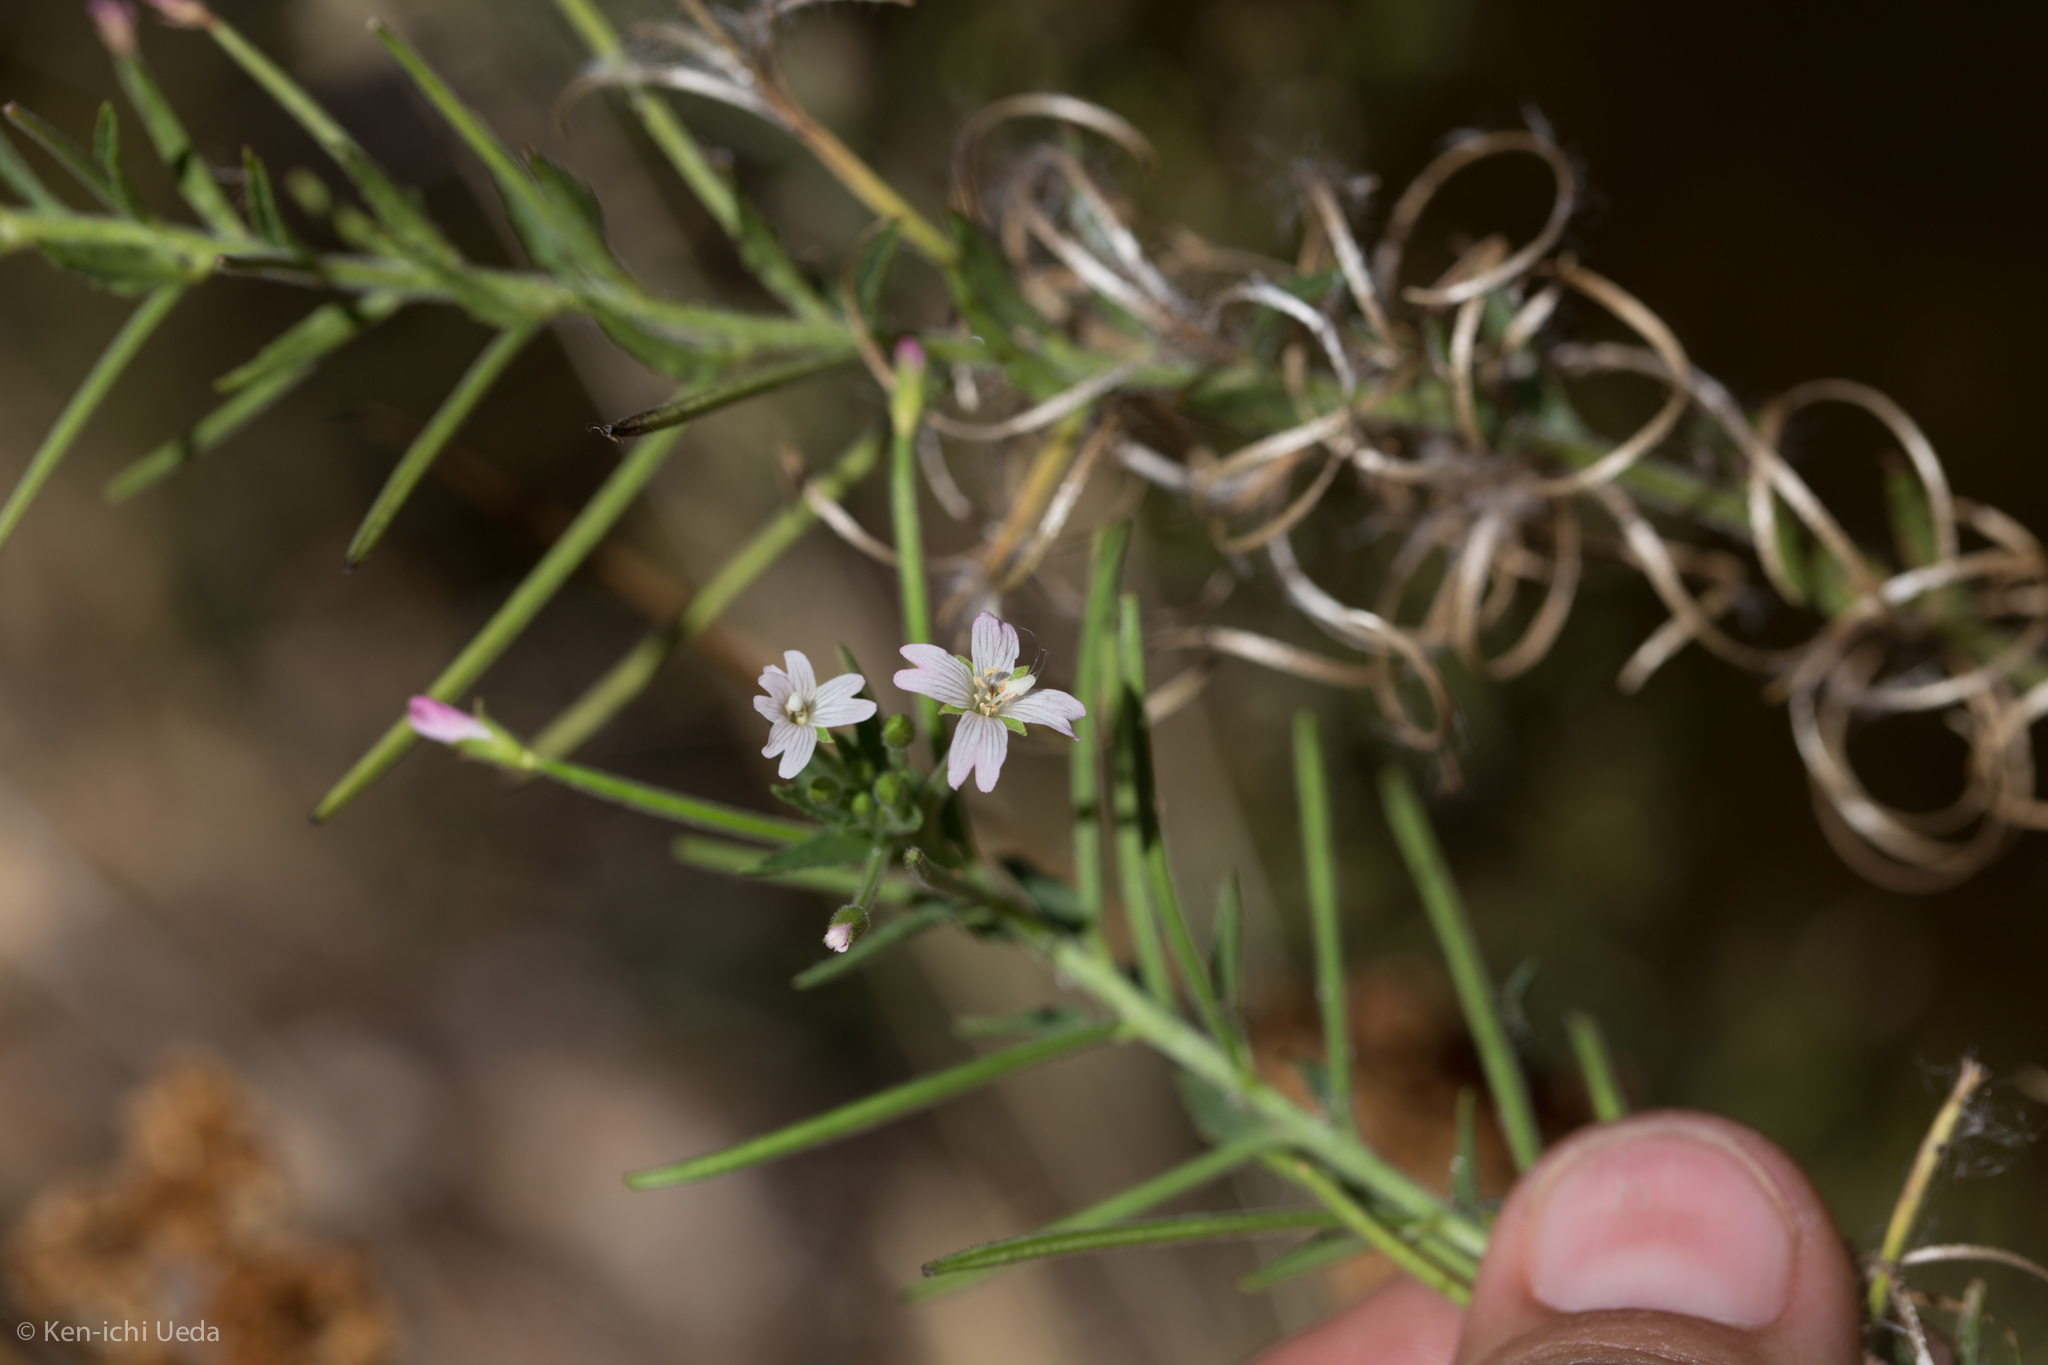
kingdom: Plantae
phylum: Tracheophyta
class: Magnoliopsida
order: Myrtales
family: Onagraceae
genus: Epilobium
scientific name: Epilobium ciliatum
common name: American willowherb
